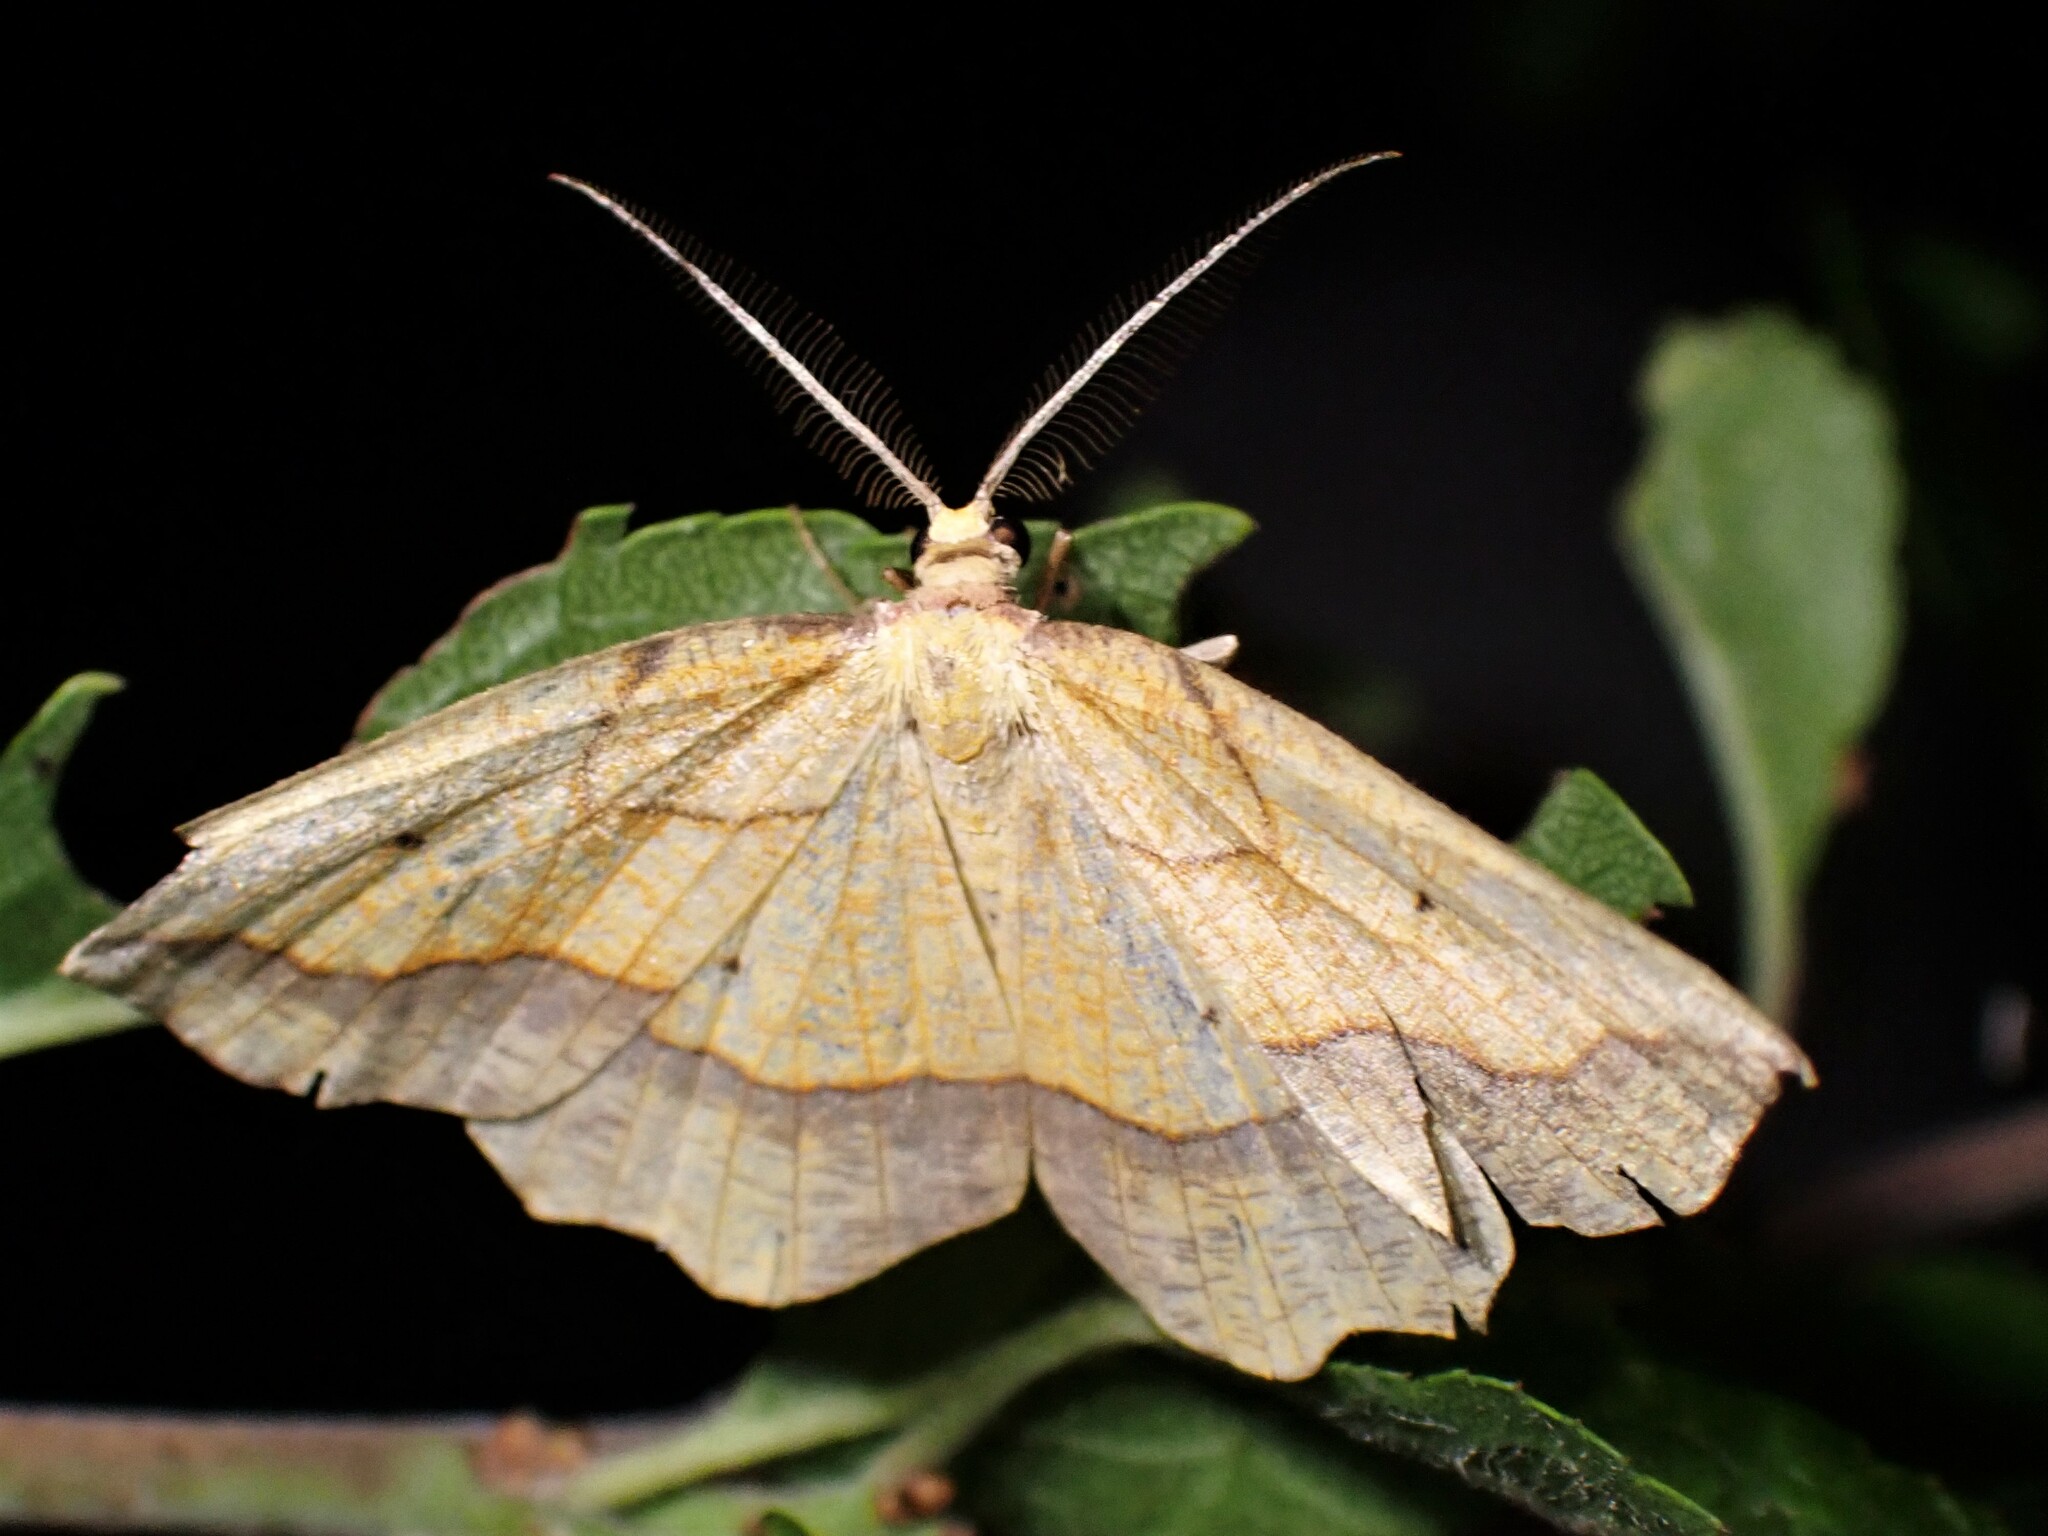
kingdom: Animalia
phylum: Arthropoda
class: Insecta
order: Lepidoptera
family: Geometridae
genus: Epione
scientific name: Epione repandaria
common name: Bordered beauty
